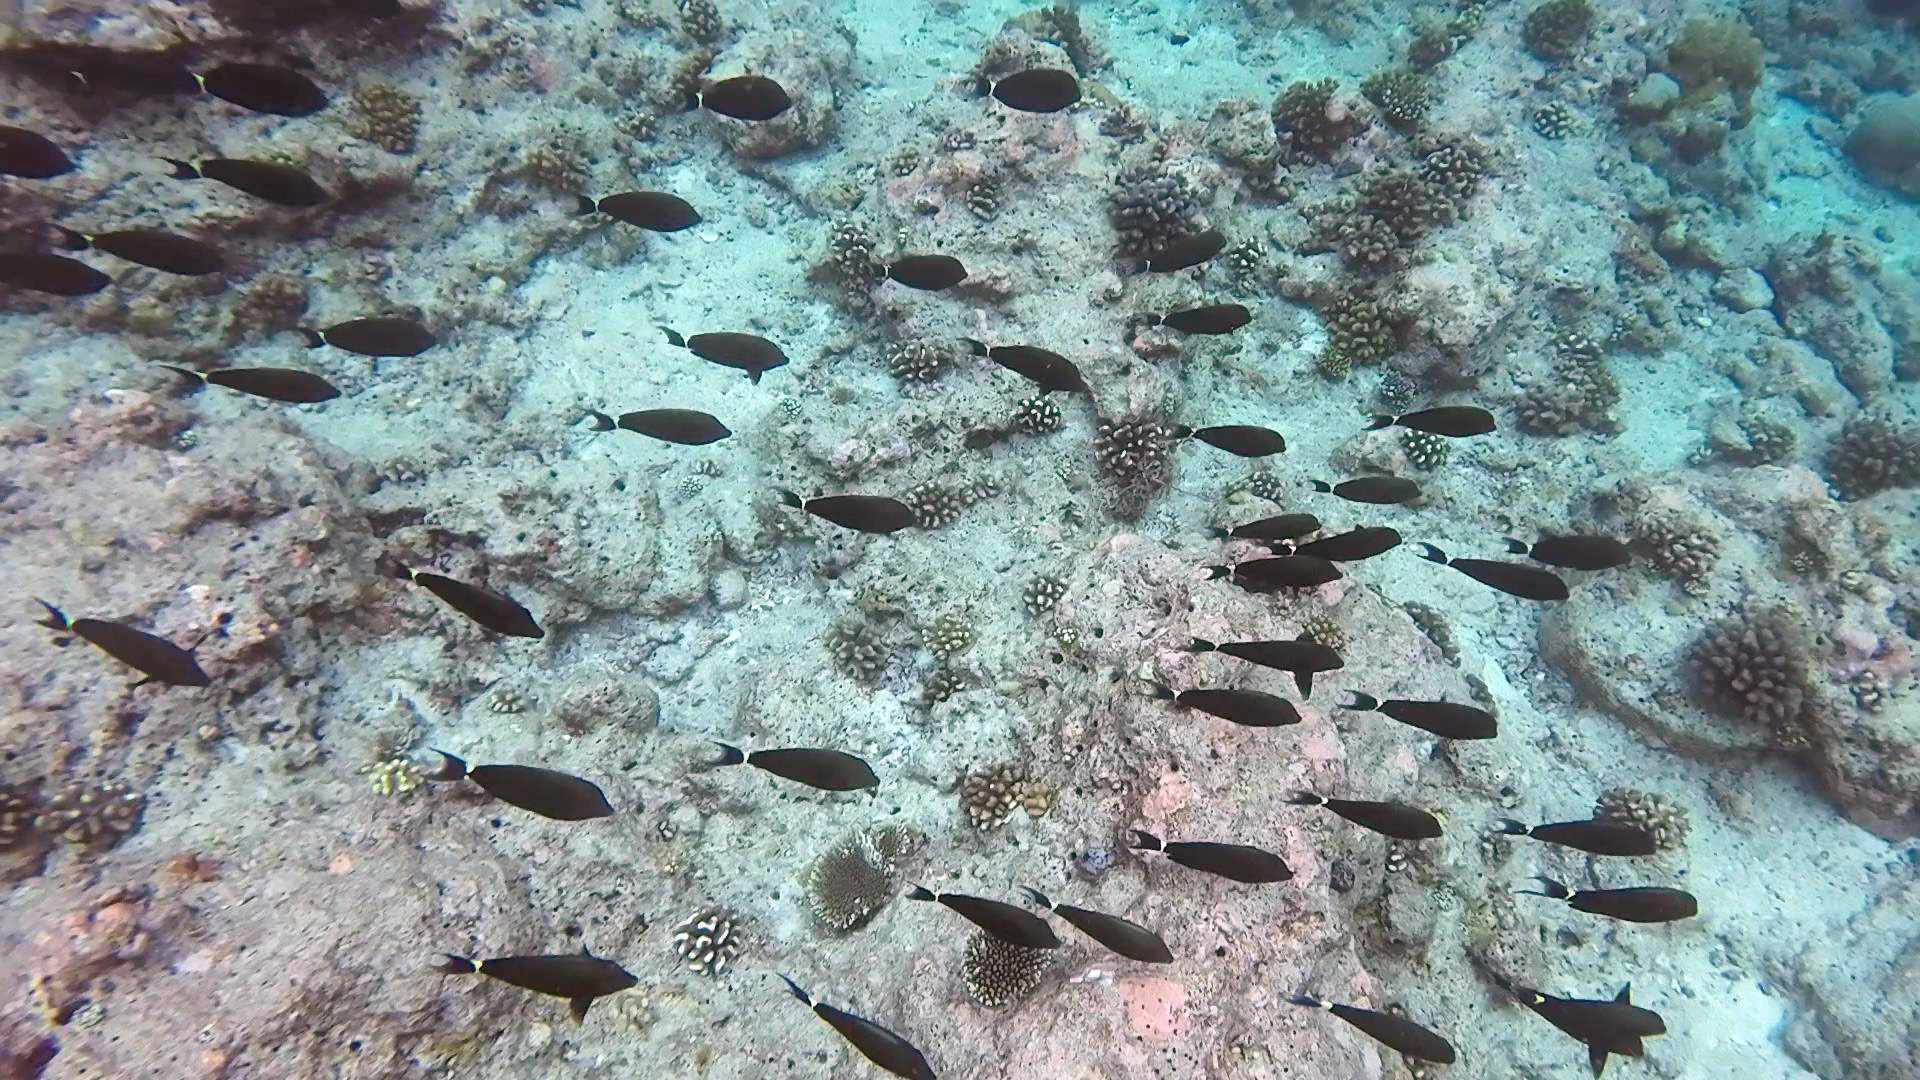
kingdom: Animalia
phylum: Chordata
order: Perciformes
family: Acanthuridae
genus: Acanthurus
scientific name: Acanthurus nigricauda
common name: Black-barred surgeonfish
